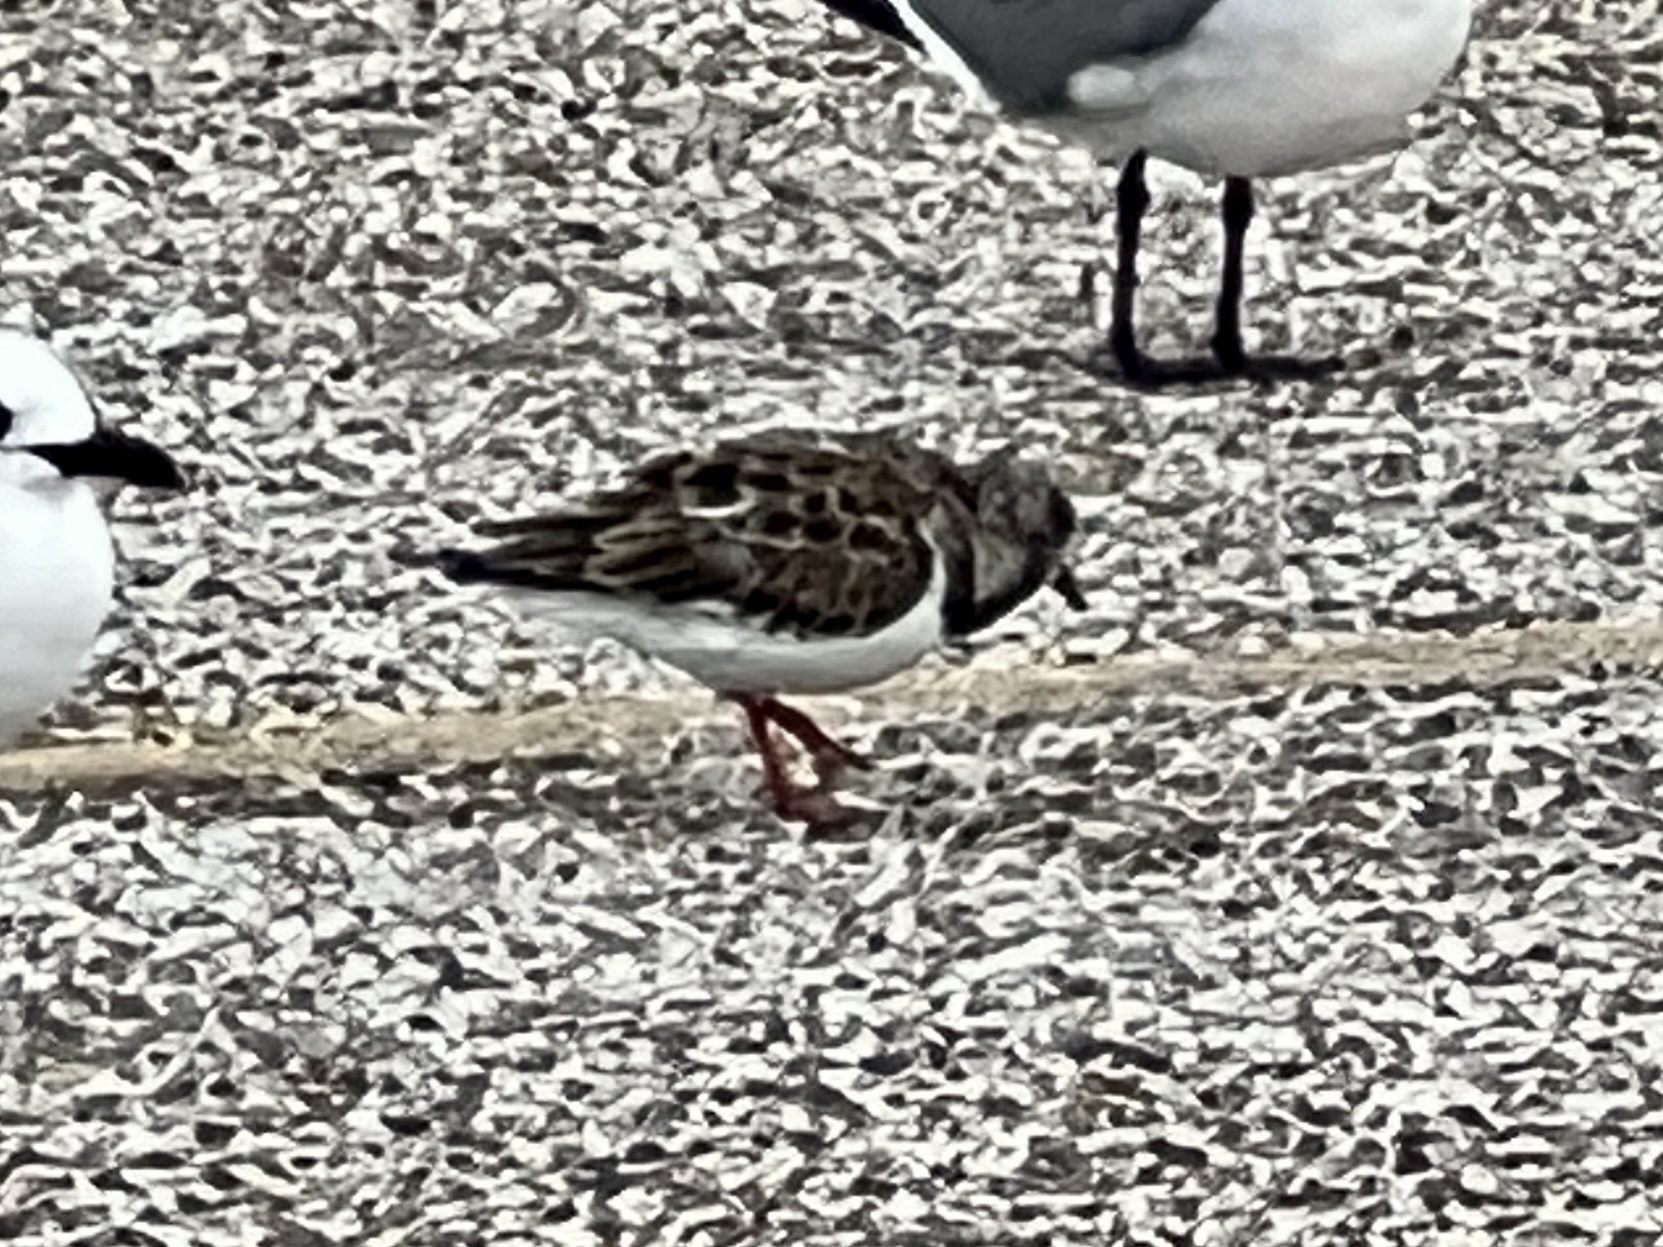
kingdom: Animalia
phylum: Chordata
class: Aves
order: Charadriiformes
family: Scolopacidae
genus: Arenaria
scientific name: Arenaria interpres
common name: Ruddy turnstone
